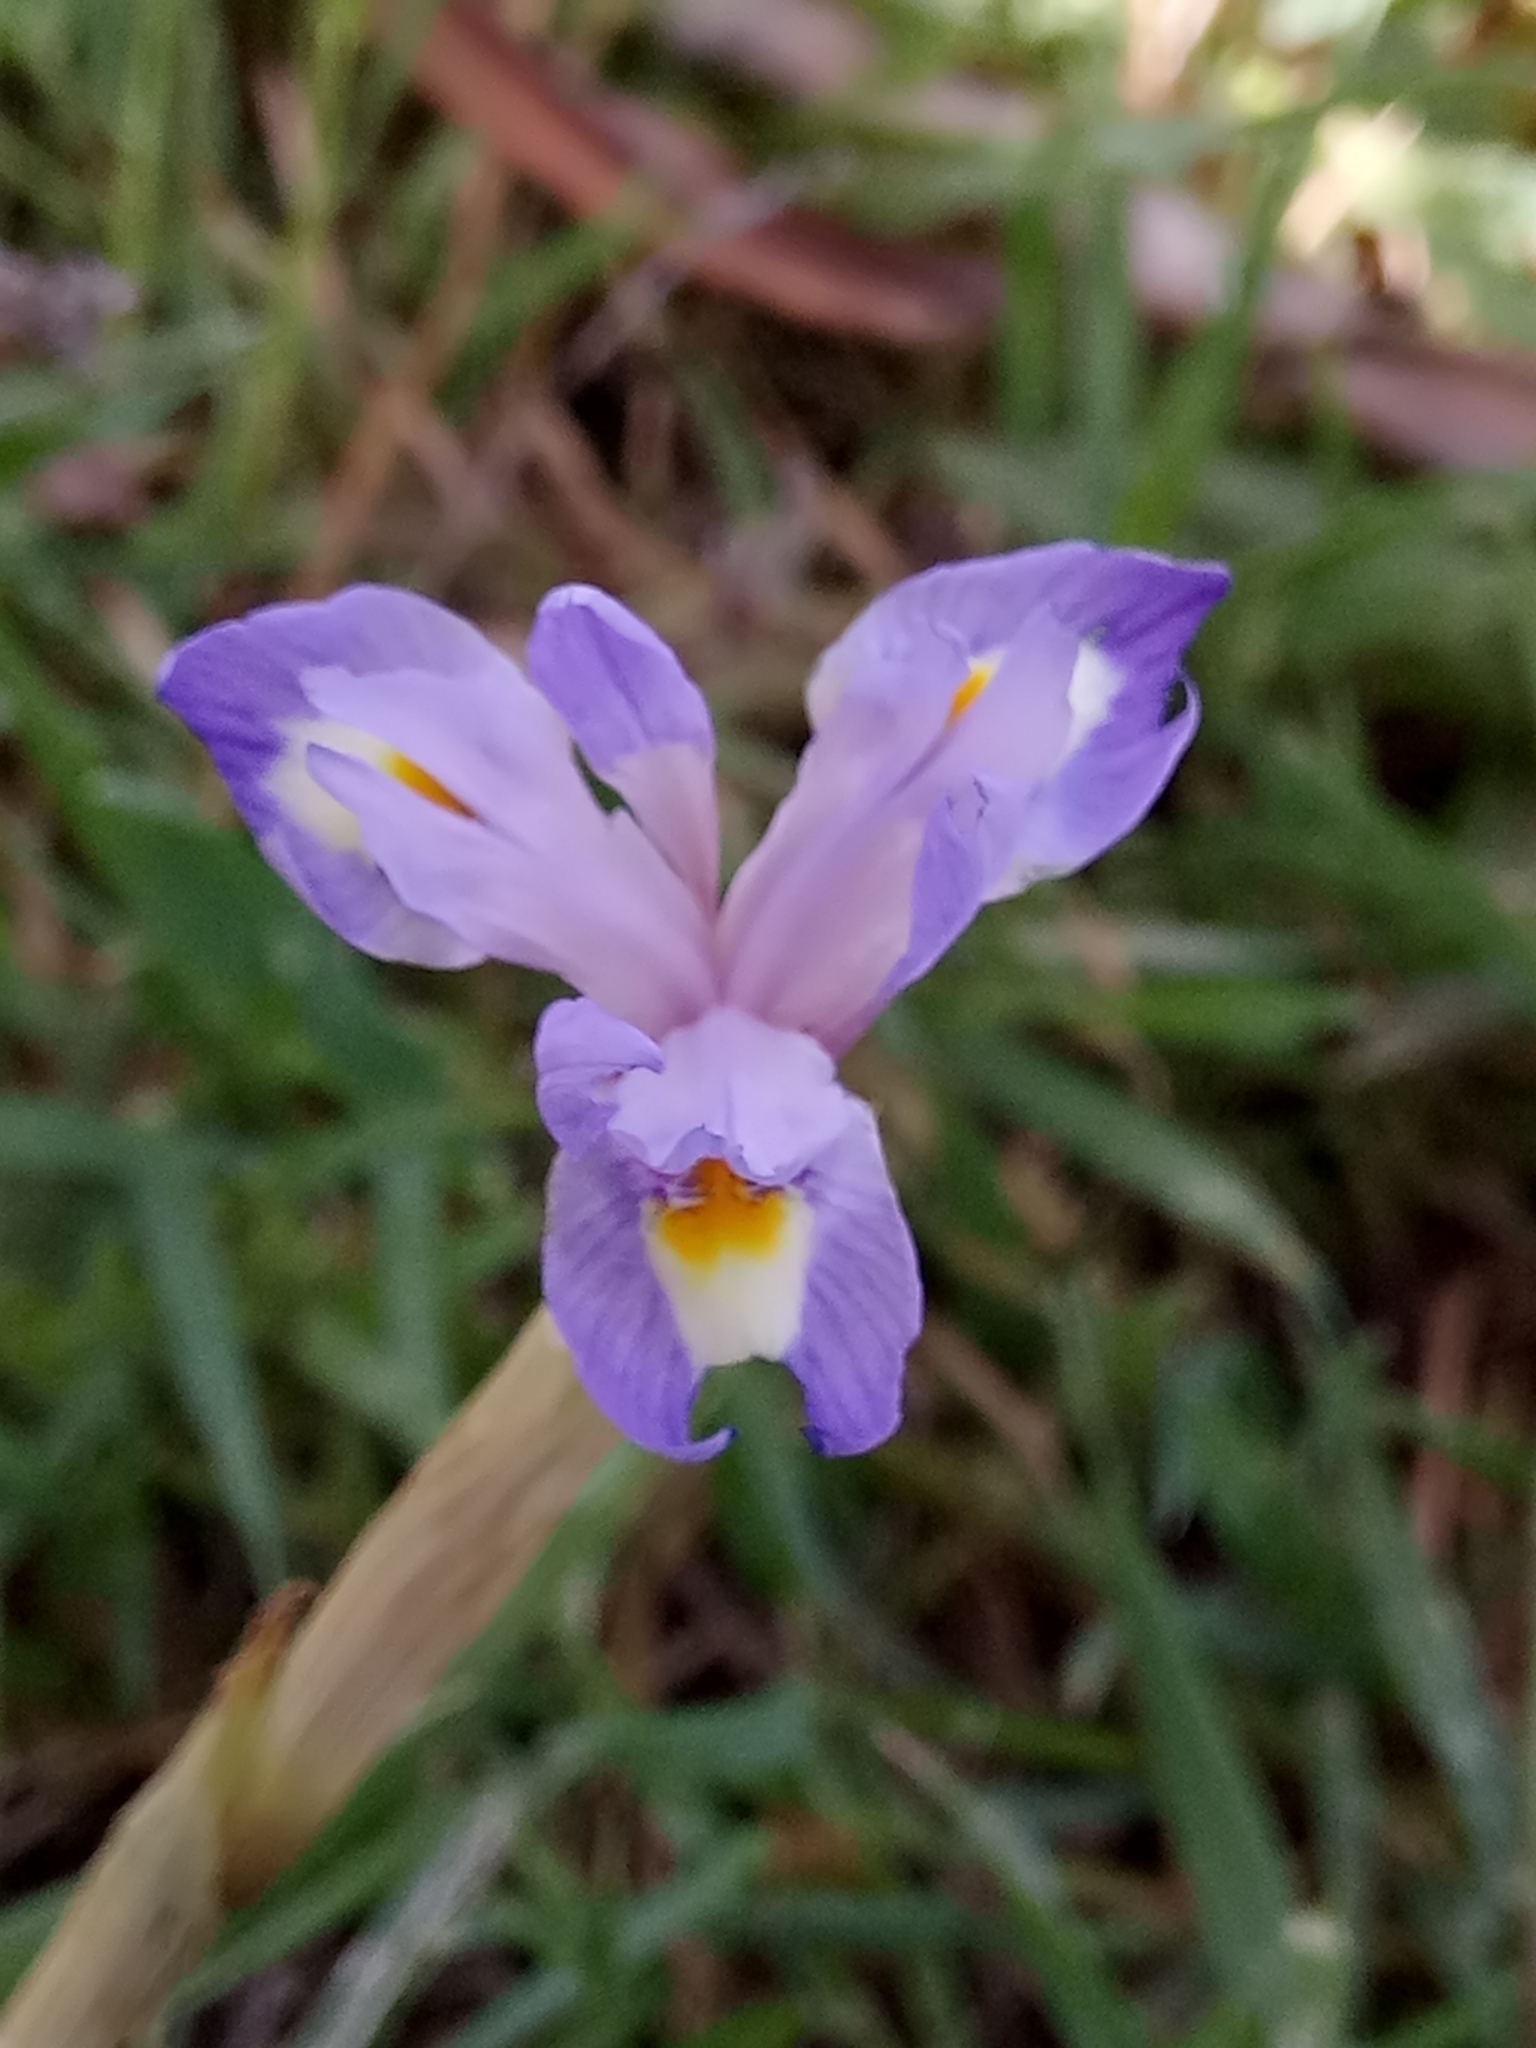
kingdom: Plantae
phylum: Tracheophyta
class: Liliopsida
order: Asparagales
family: Iridaceae
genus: Moraea
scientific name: Moraea sisyrinchium
